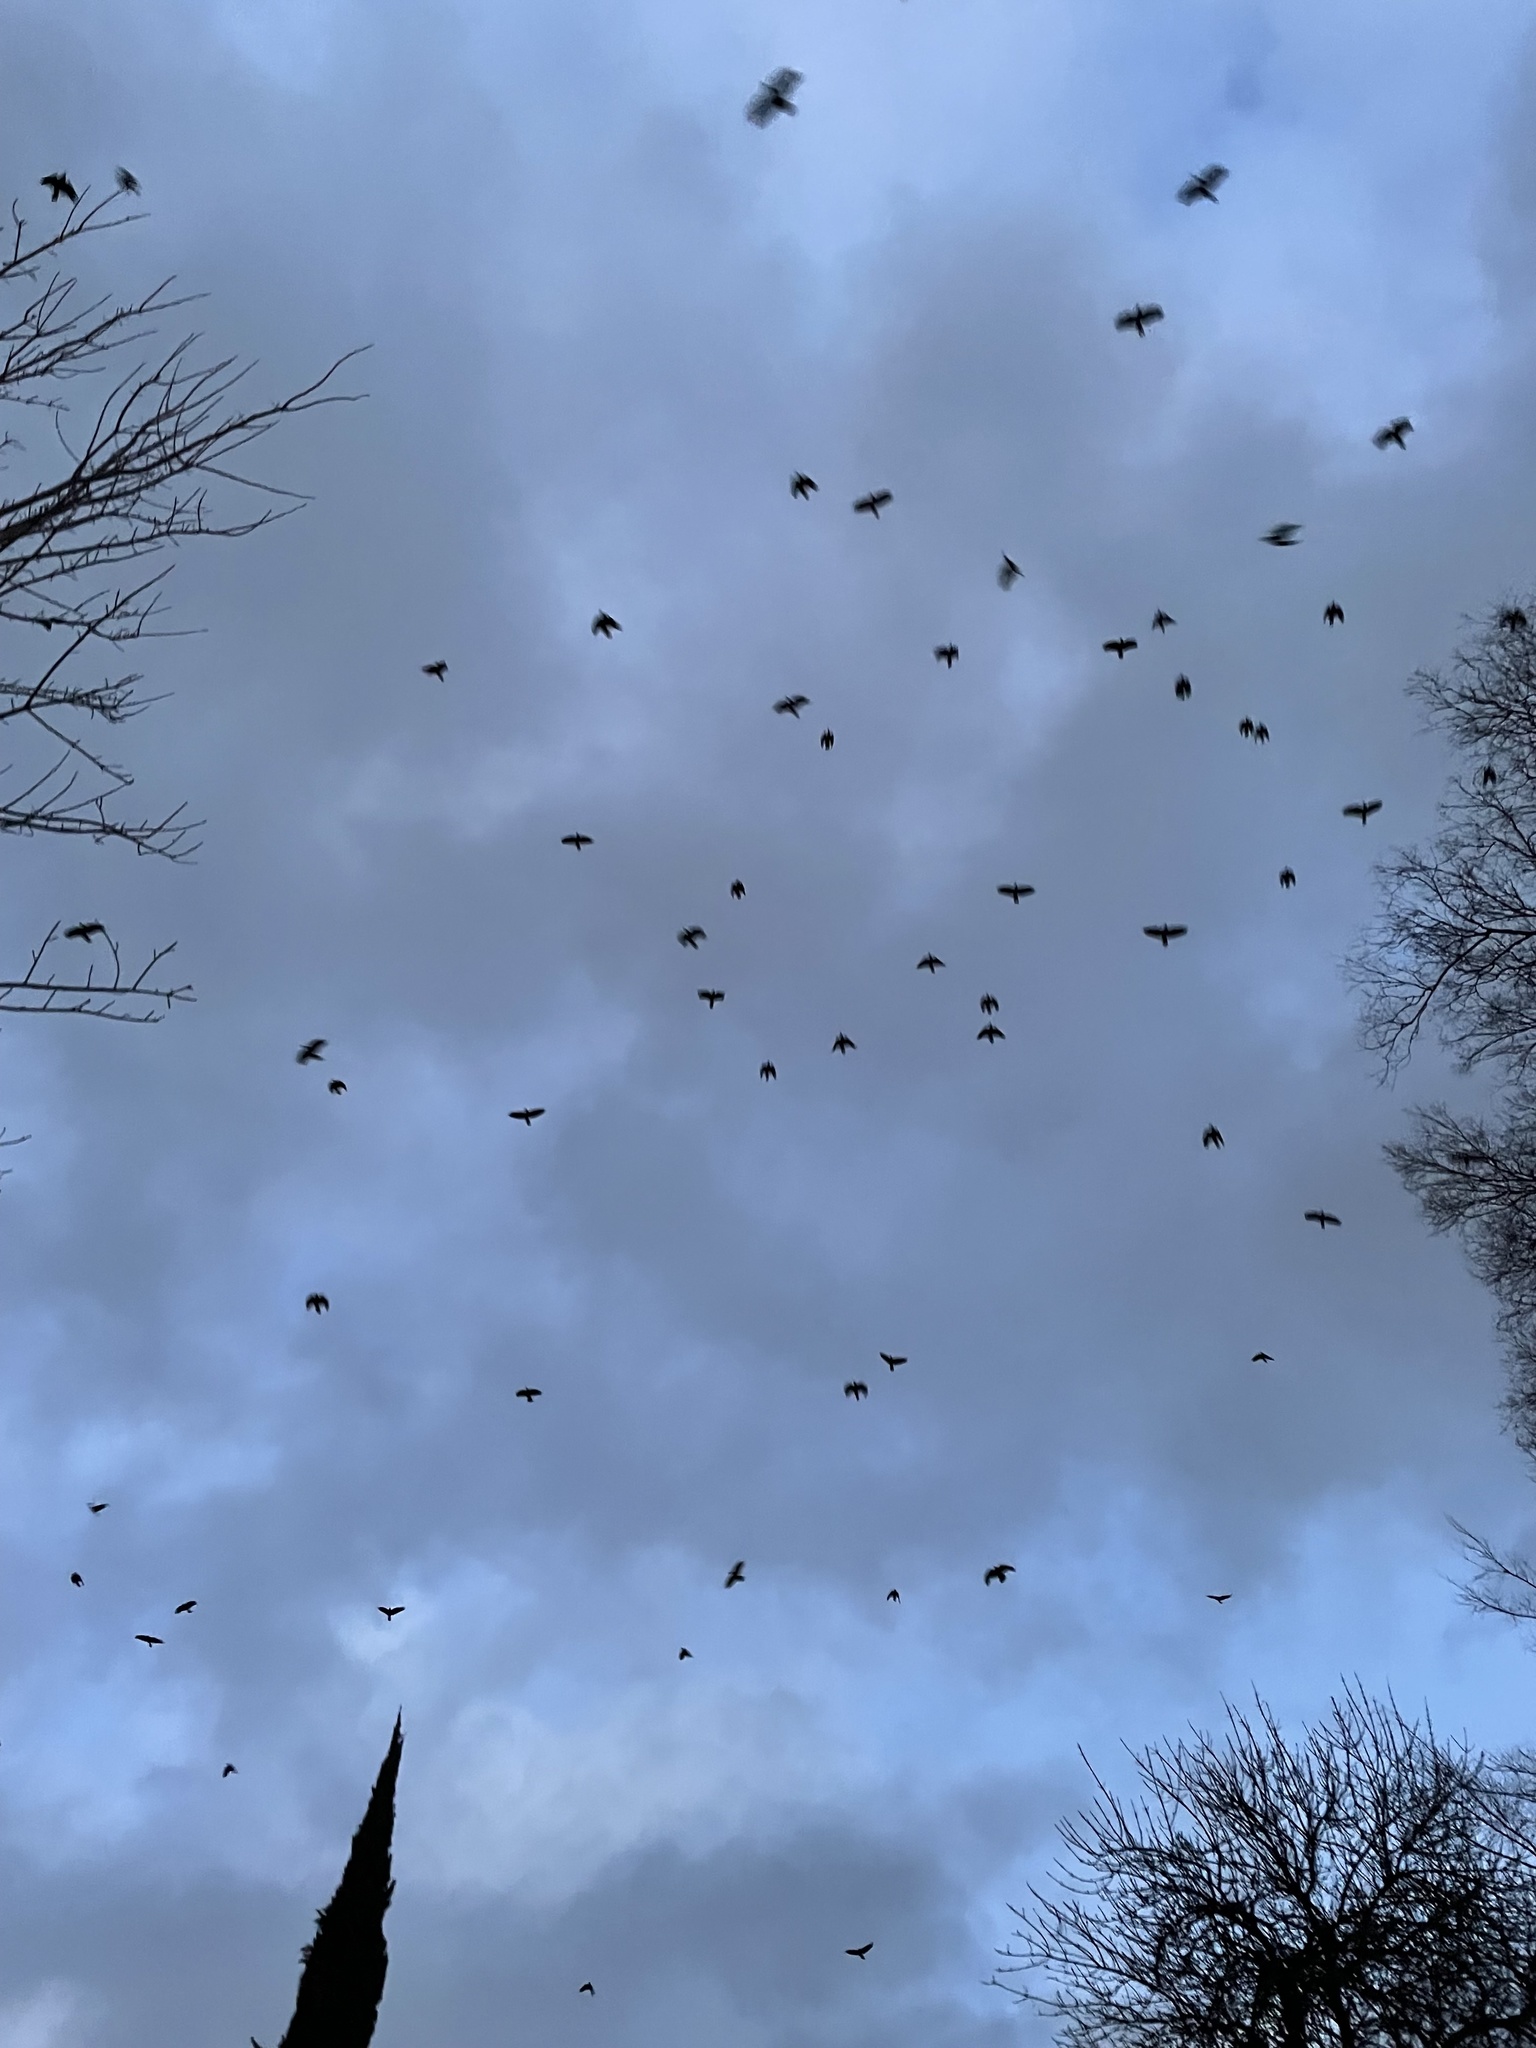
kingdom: Animalia
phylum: Chordata
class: Aves
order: Passeriformes
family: Corvidae
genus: Corvus
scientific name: Corvus brachyrhynchos
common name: American crow
